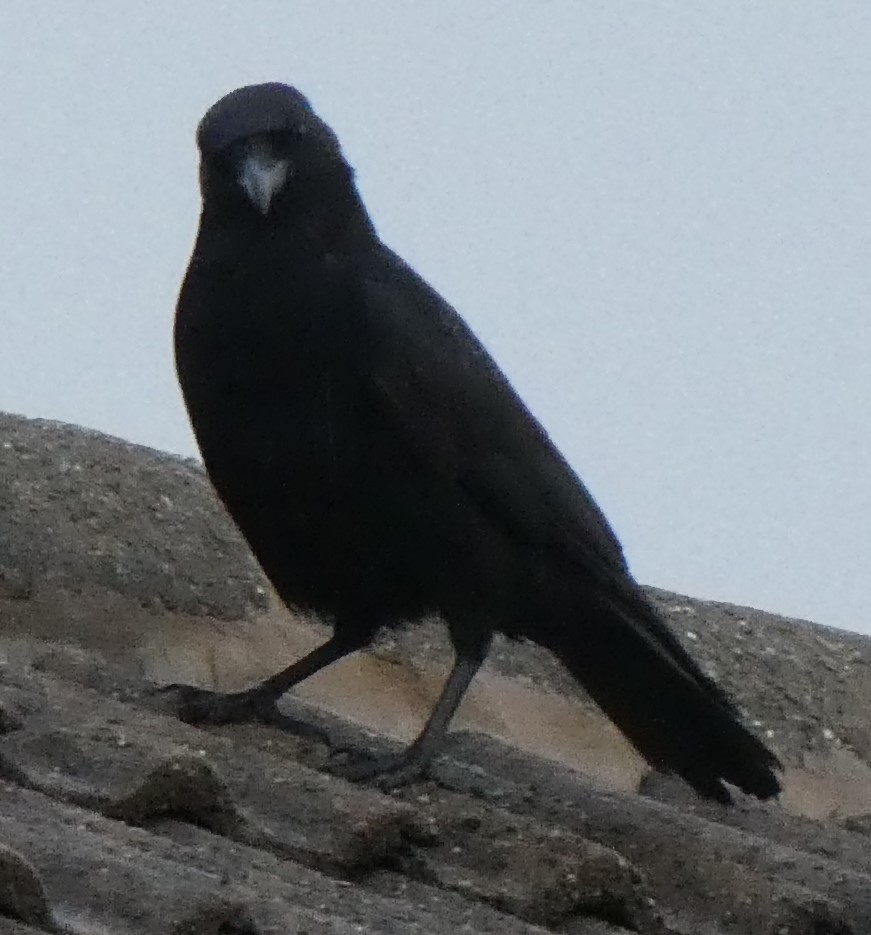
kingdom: Animalia
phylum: Chordata
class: Aves
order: Passeriformes
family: Corvidae
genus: Corvus
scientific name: Corvus corone
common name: Carrion crow
